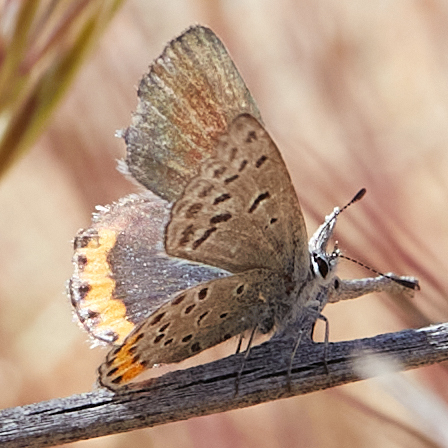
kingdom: Animalia
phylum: Arthropoda
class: Insecta
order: Lepidoptera
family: Lycaenidae
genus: Icaricia
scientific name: Icaricia acmon
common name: Acmon blue
